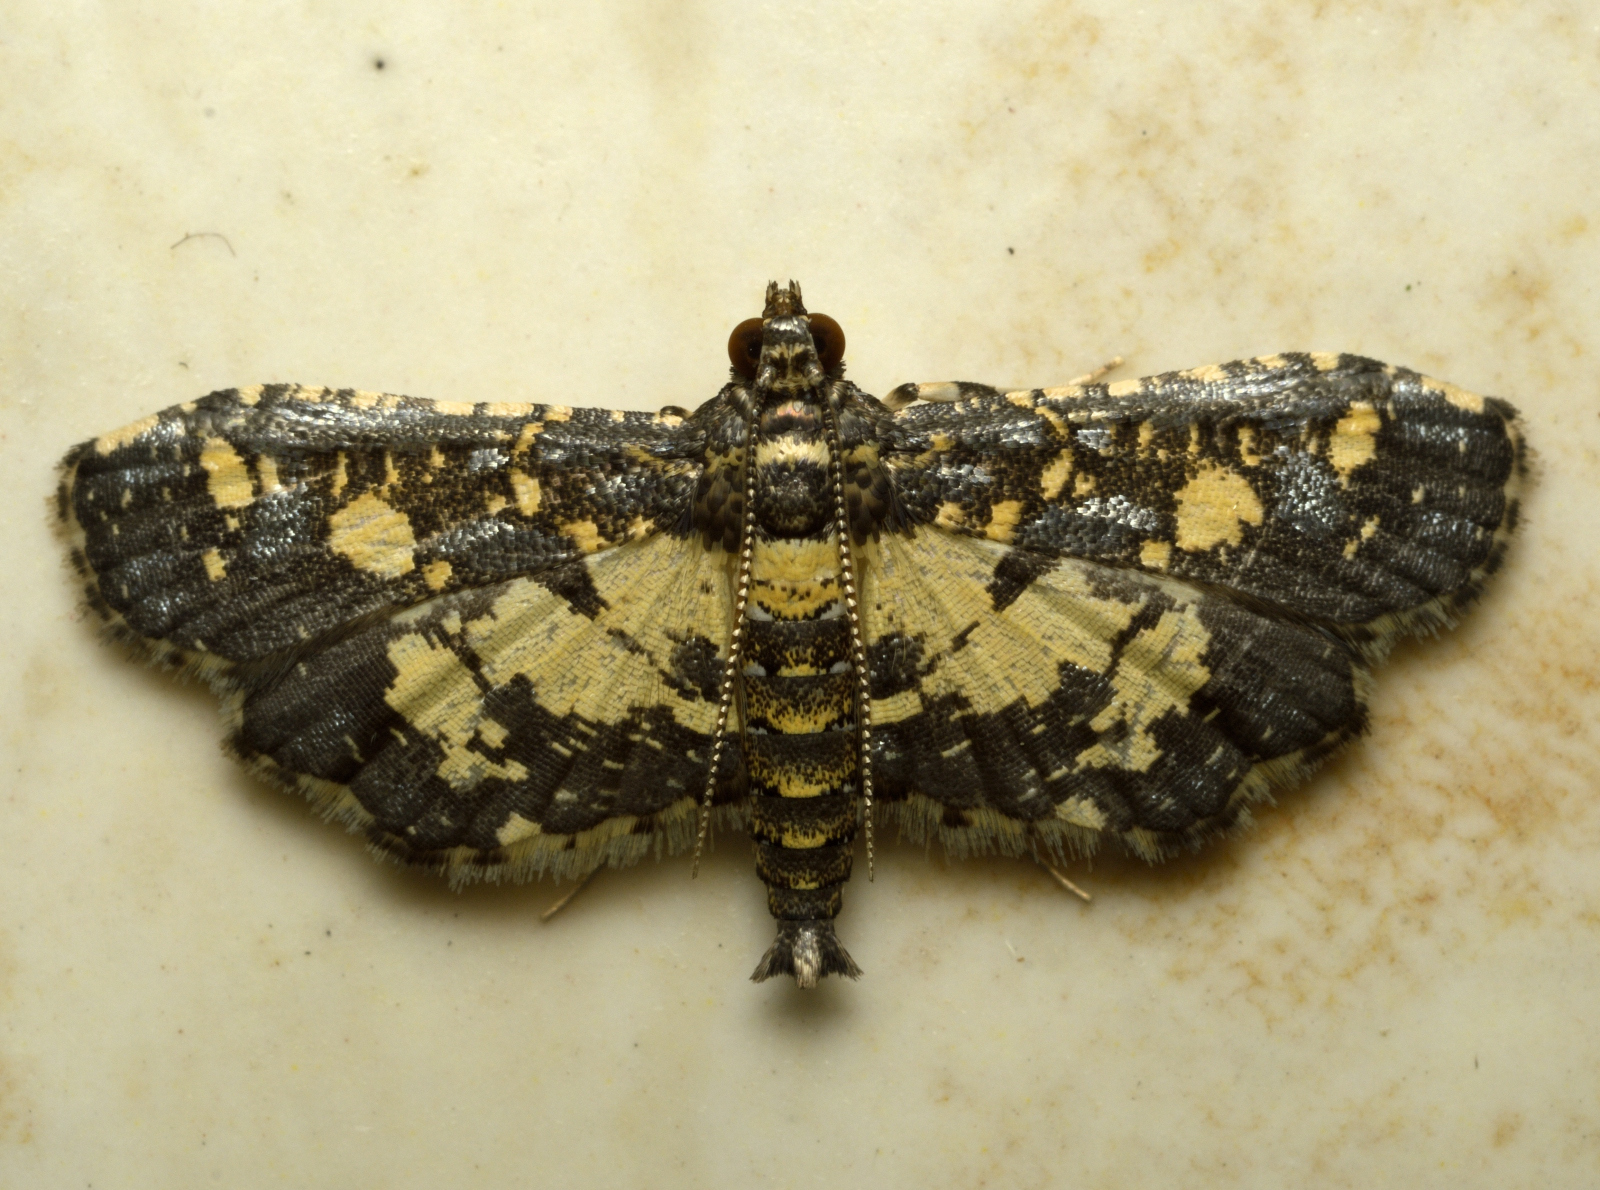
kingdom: Animalia
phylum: Arthropoda
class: Insecta
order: Lepidoptera
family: Crambidae
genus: Eurrhyparodes
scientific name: Eurrhyparodes bracteolalis
